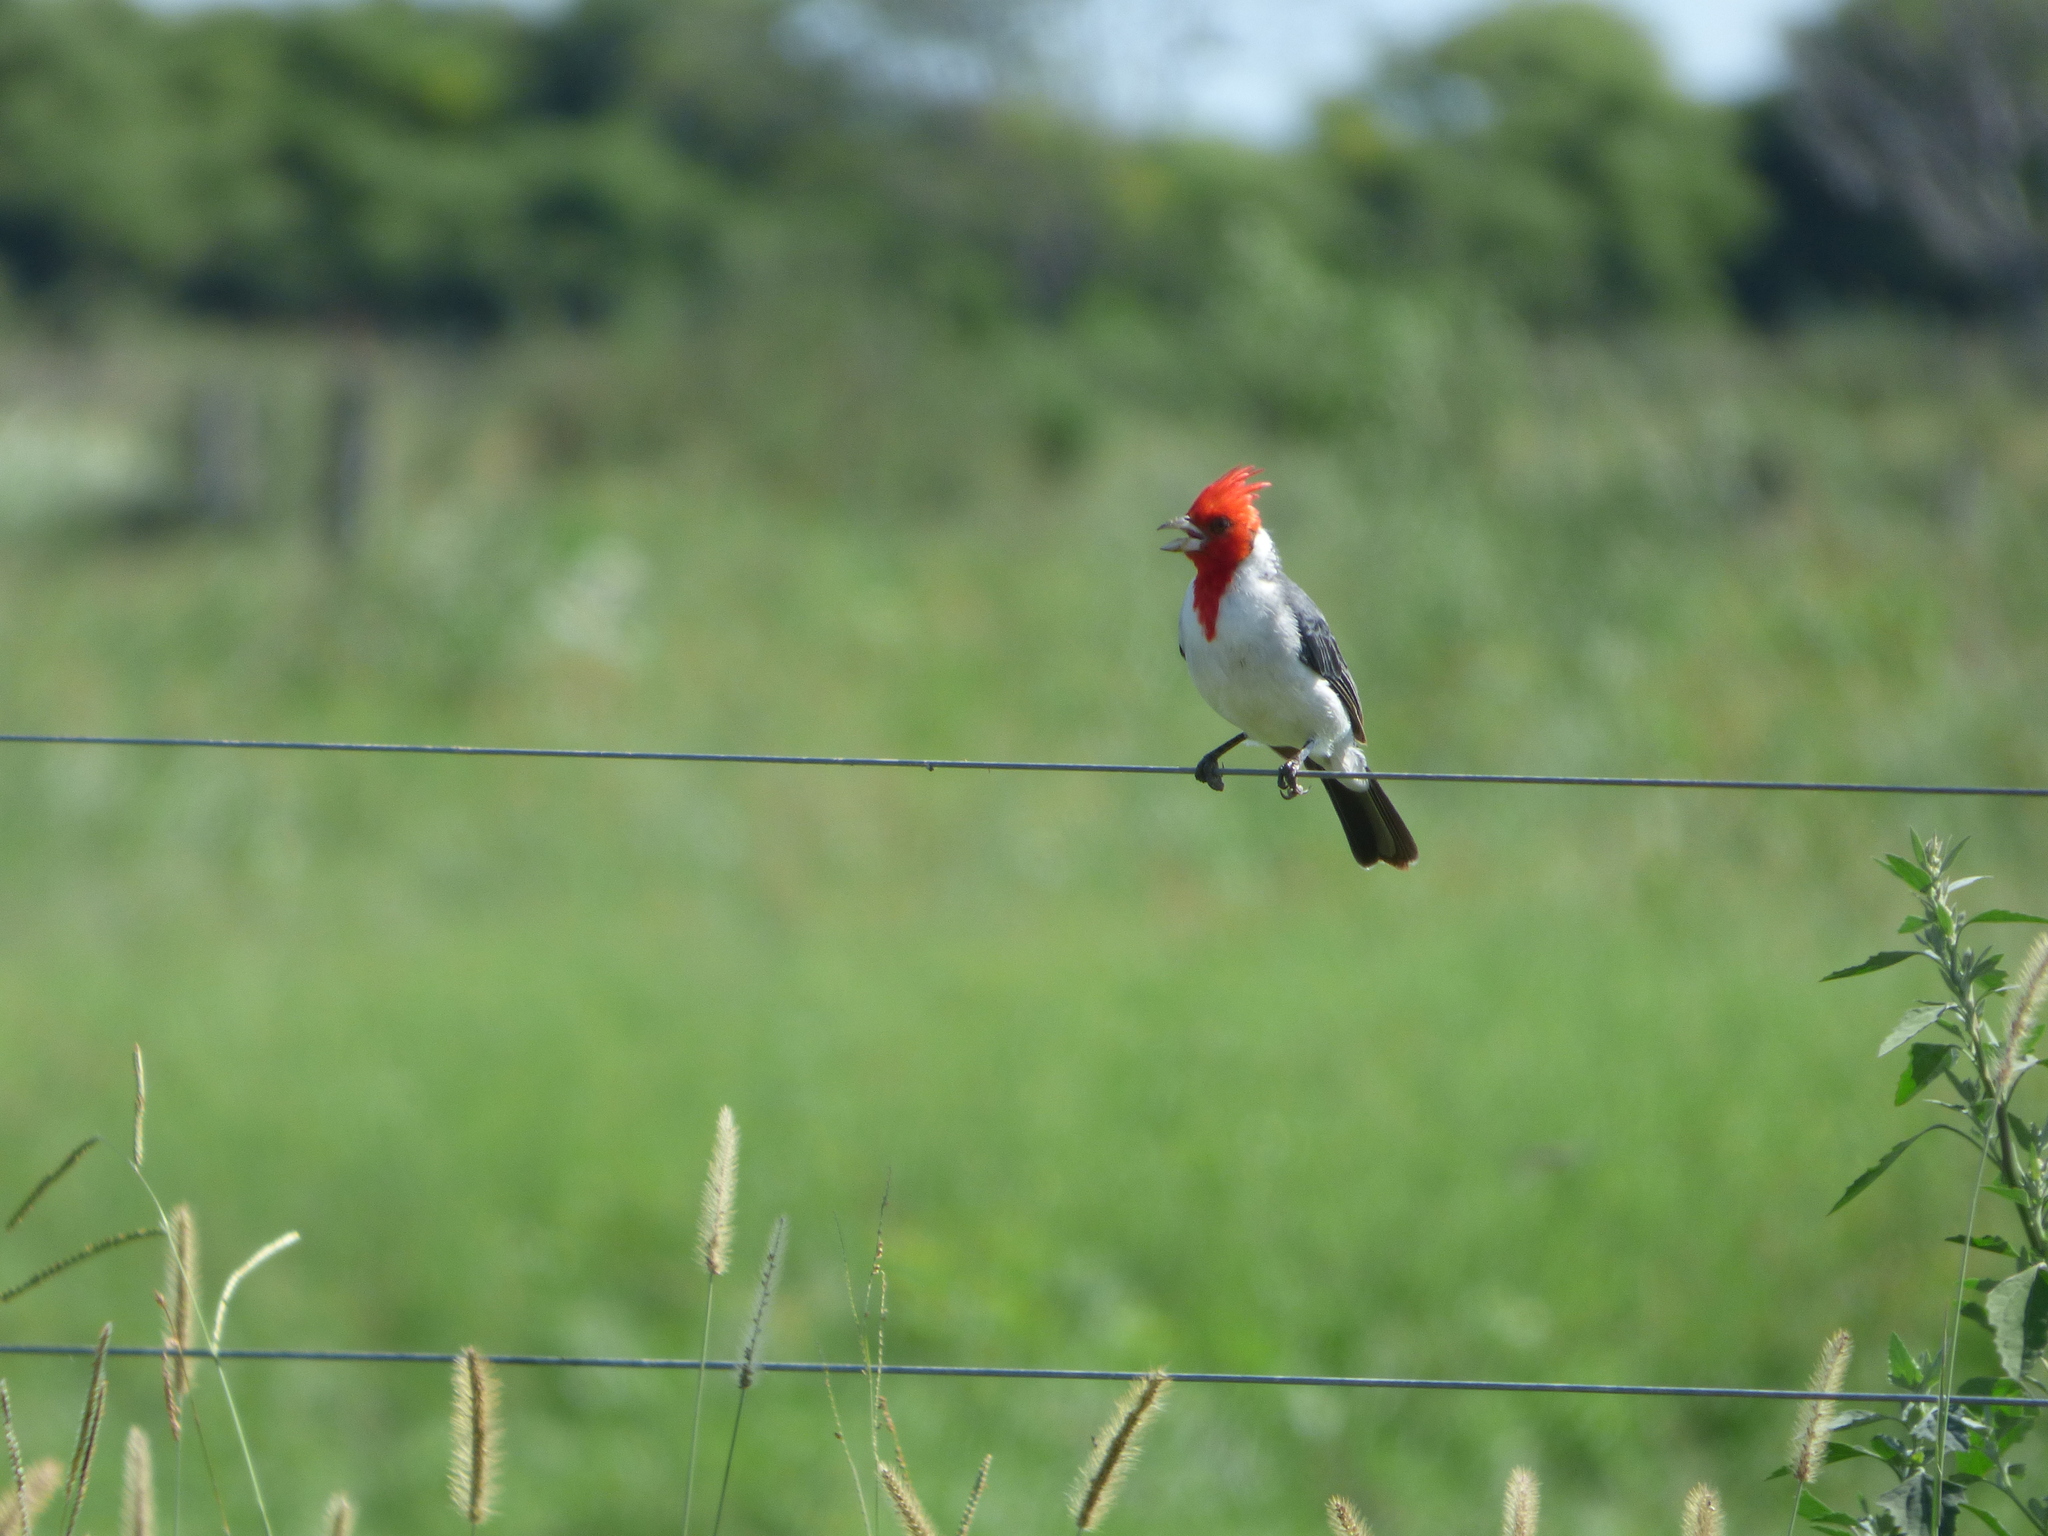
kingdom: Animalia
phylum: Chordata
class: Aves
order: Passeriformes
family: Thraupidae
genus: Paroaria
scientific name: Paroaria coronata
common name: Red-crested cardinal
